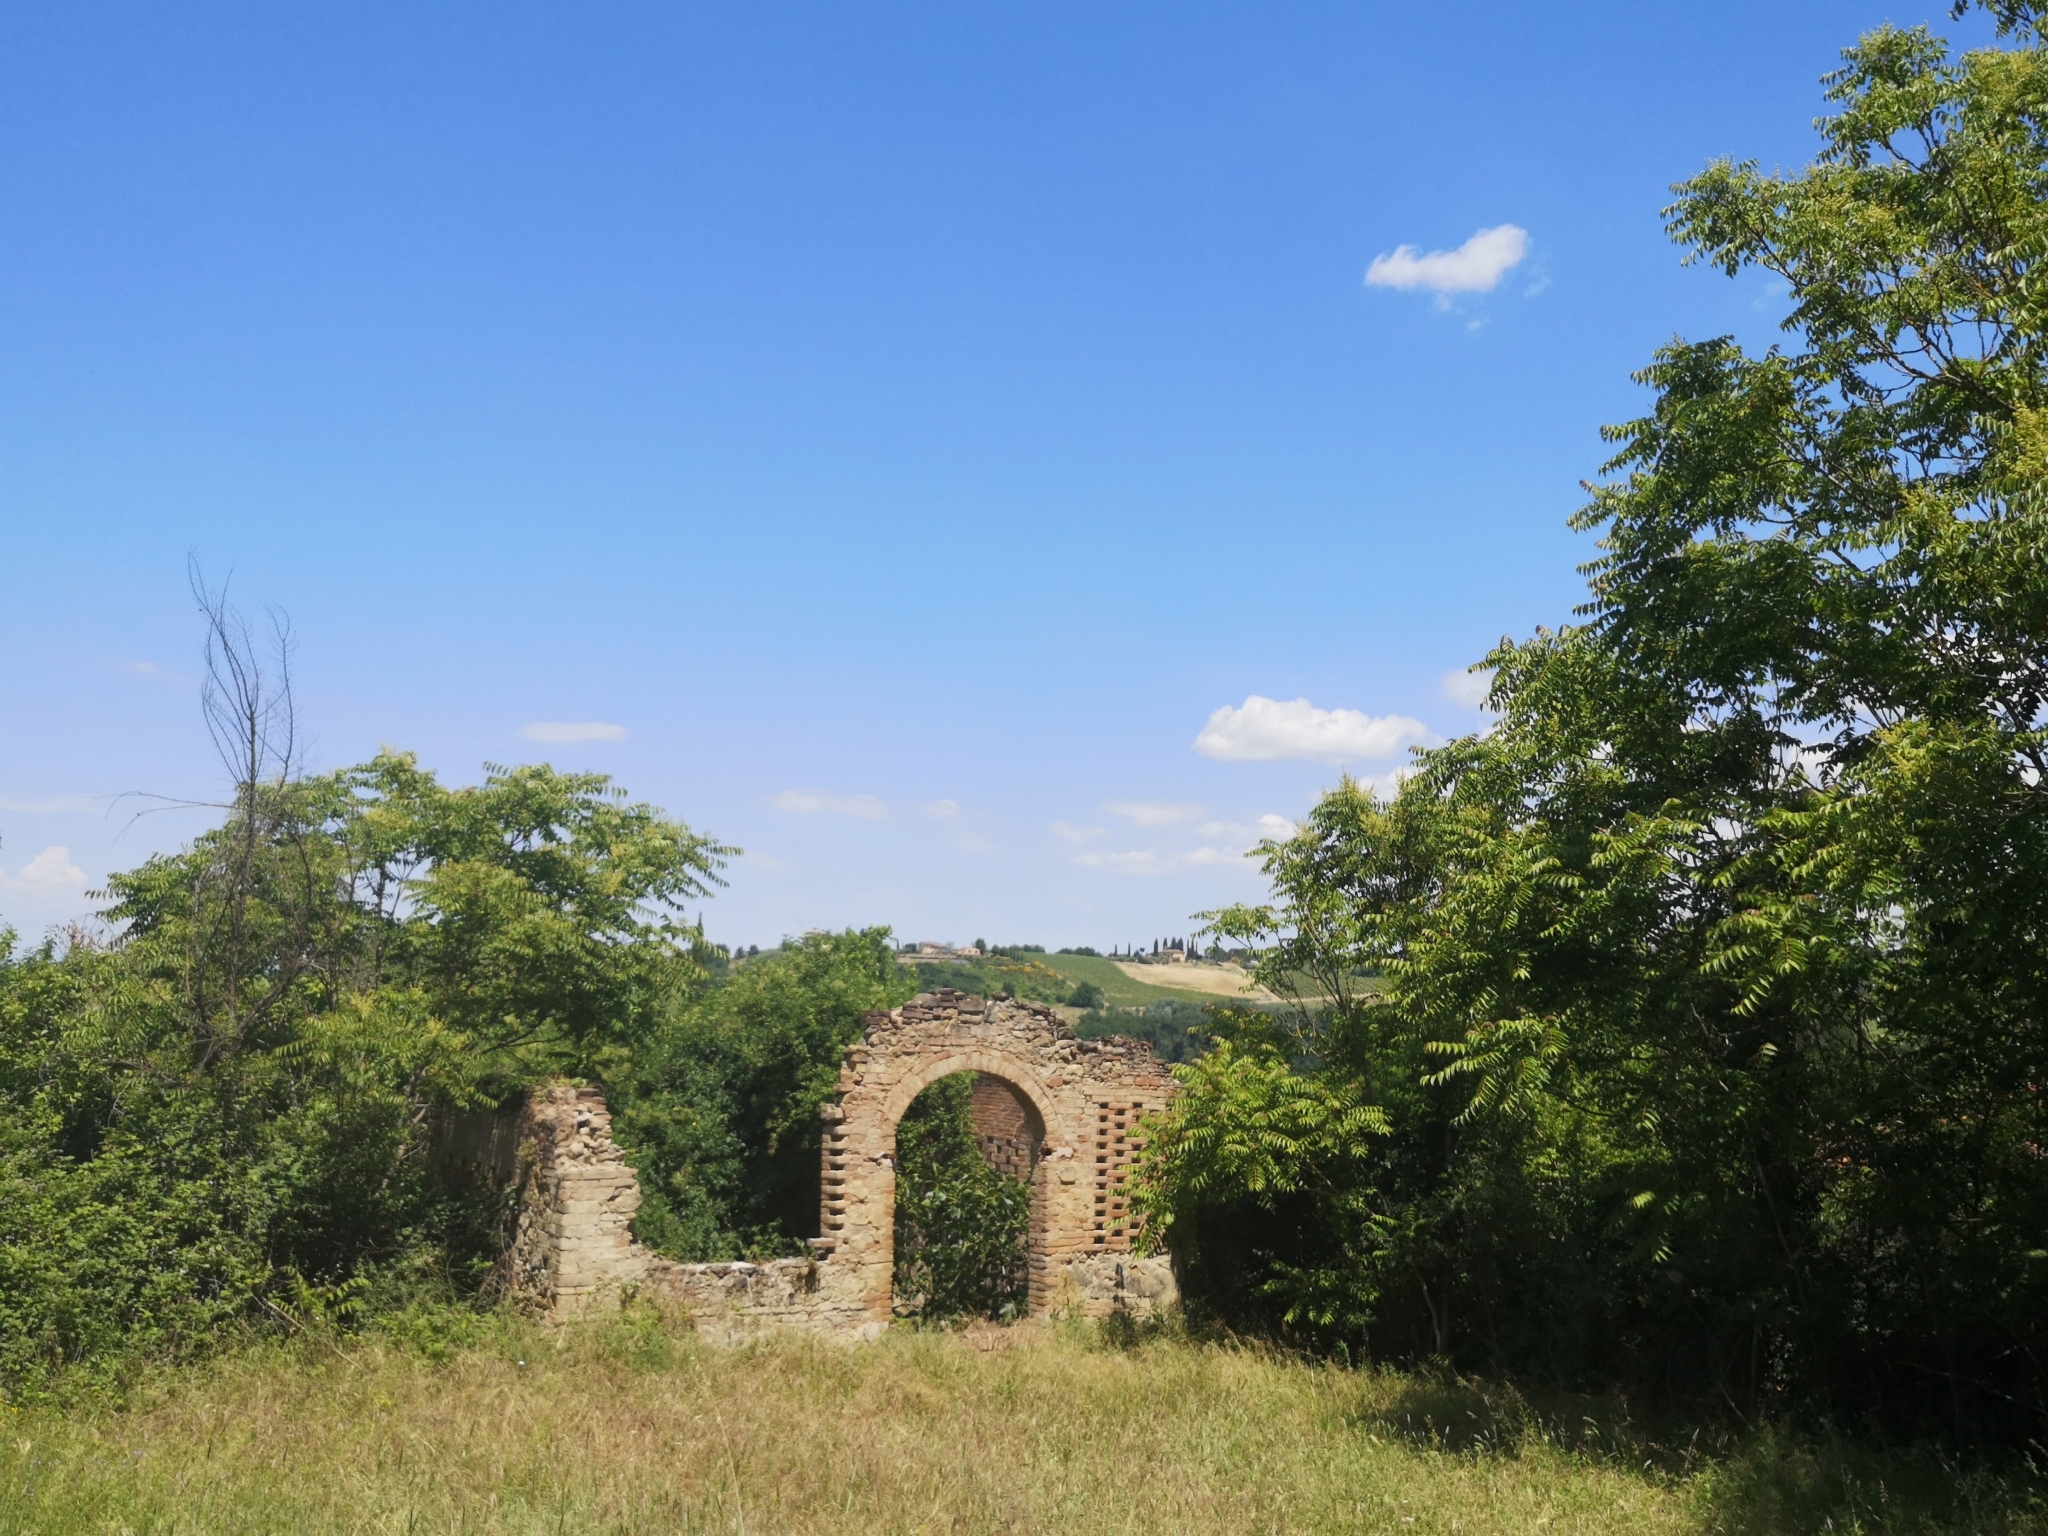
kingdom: Plantae
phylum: Tracheophyta
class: Magnoliopsida
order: Sapindales
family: Simaroubaceae
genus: Ailanthus
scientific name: Ailanthus altissima
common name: Tree-of-heaven
